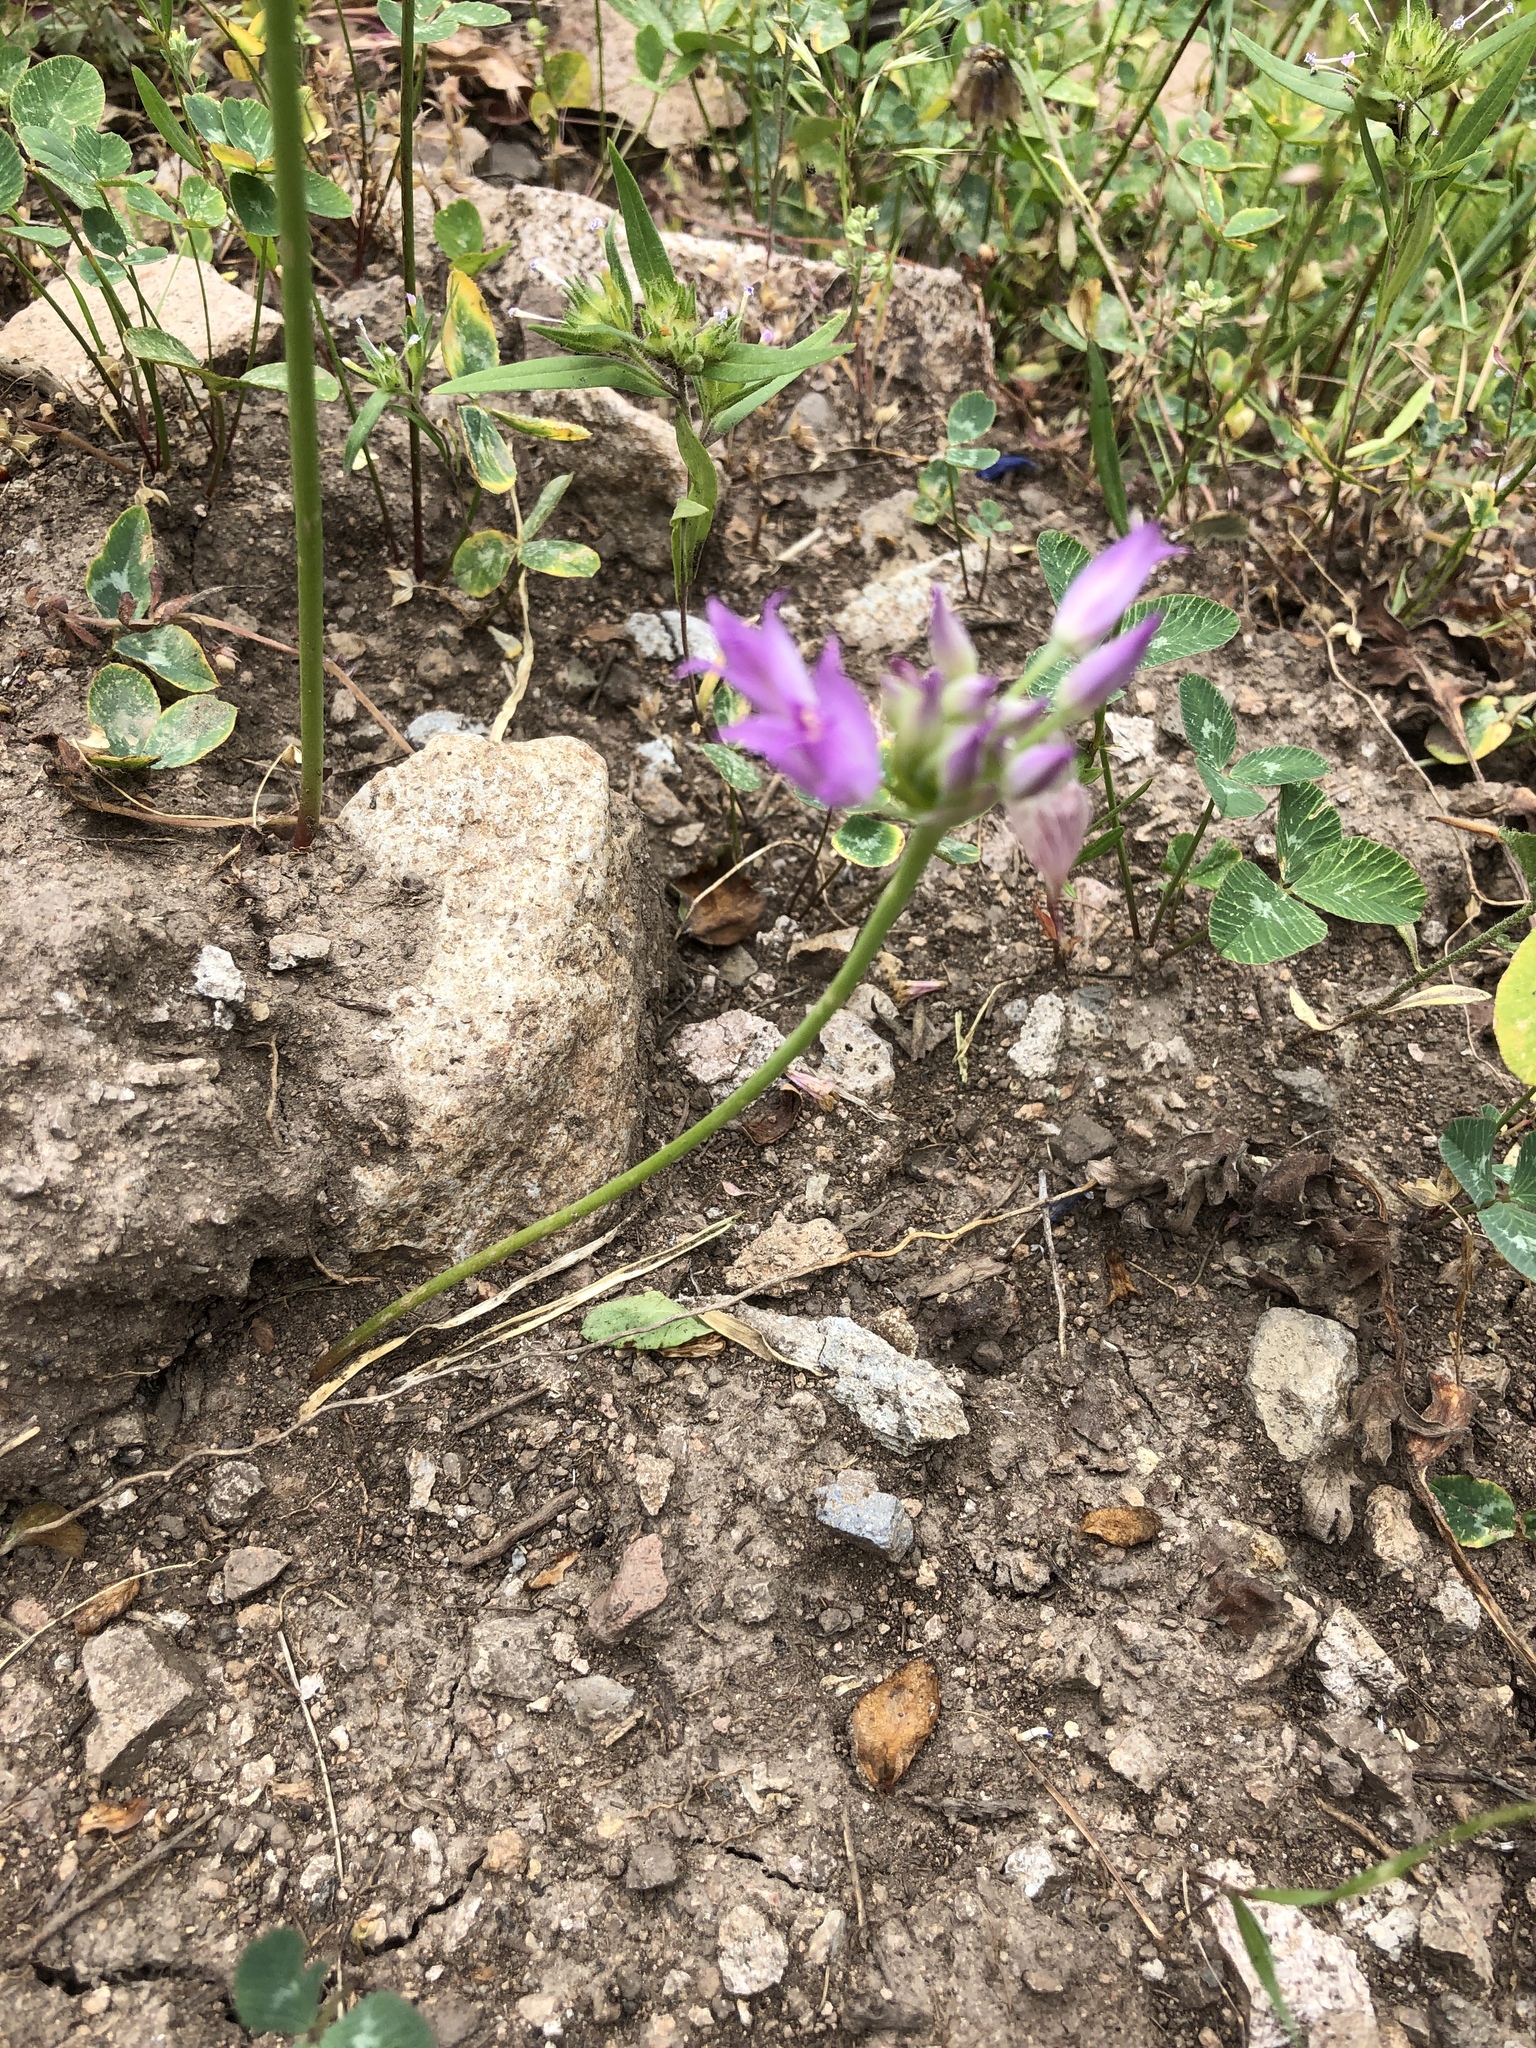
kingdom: Plantae
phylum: Tracheophyta
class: Liliopsida
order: Asparagales
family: Amaryllidaceae
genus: Allium
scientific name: Allium acuminatum
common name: Hooker's onion
